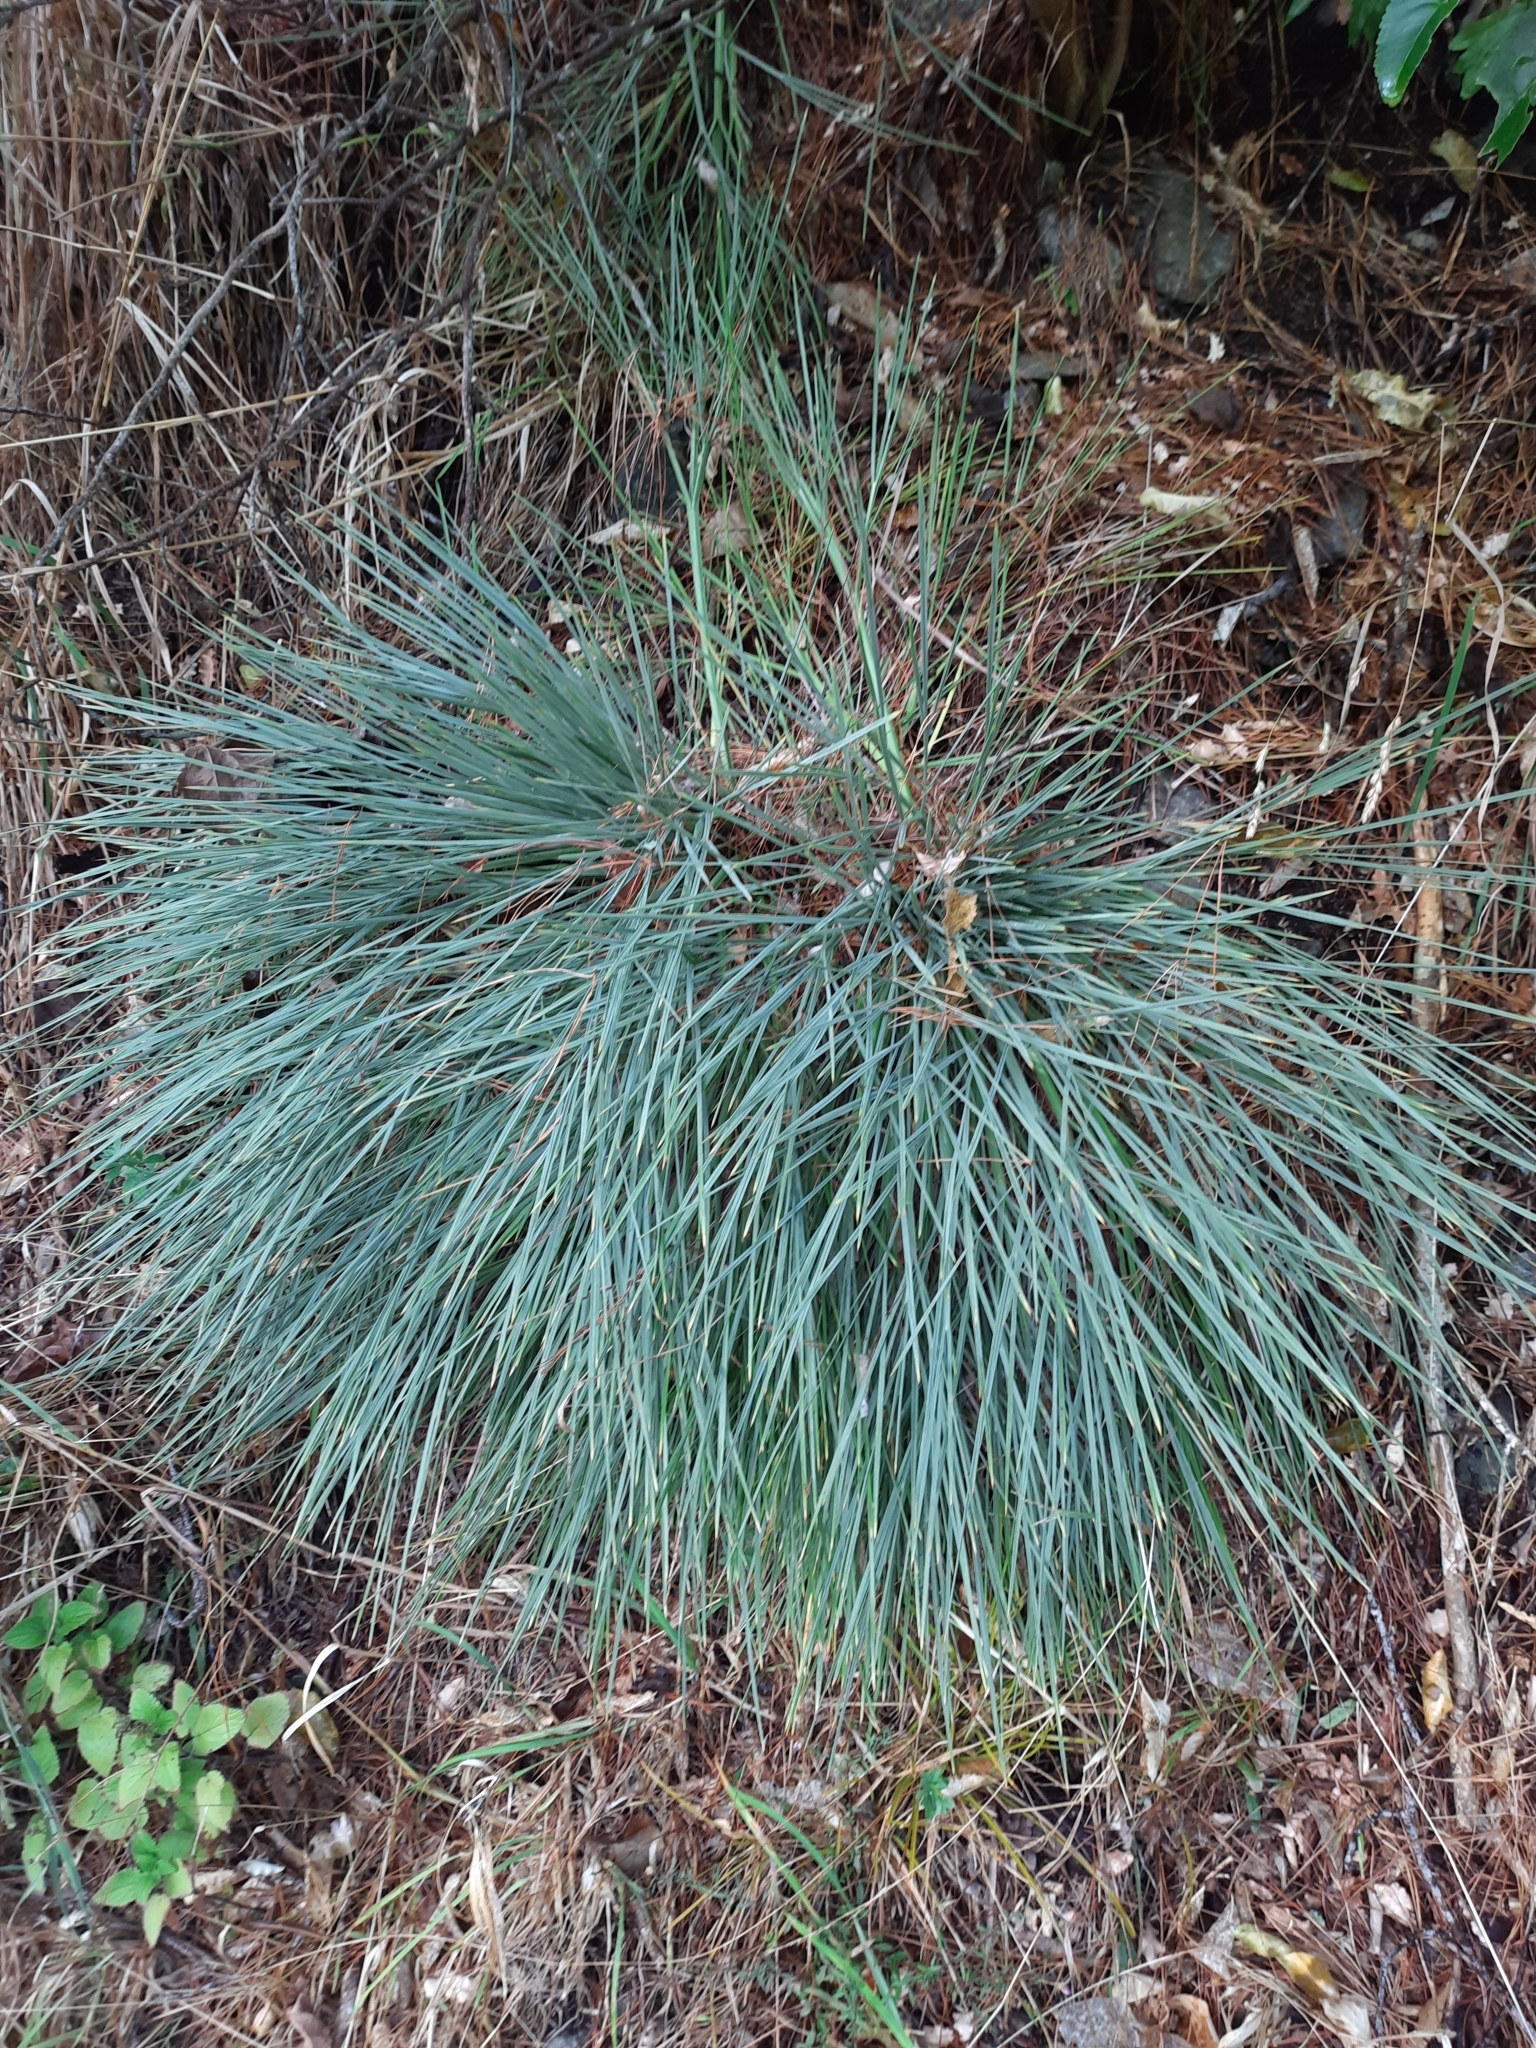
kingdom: Plantae
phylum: Tracheophyta
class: Magnoliopsida
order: Apiales
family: Apiaceae
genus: Aciphylla
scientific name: Aciphylla squarrosa
